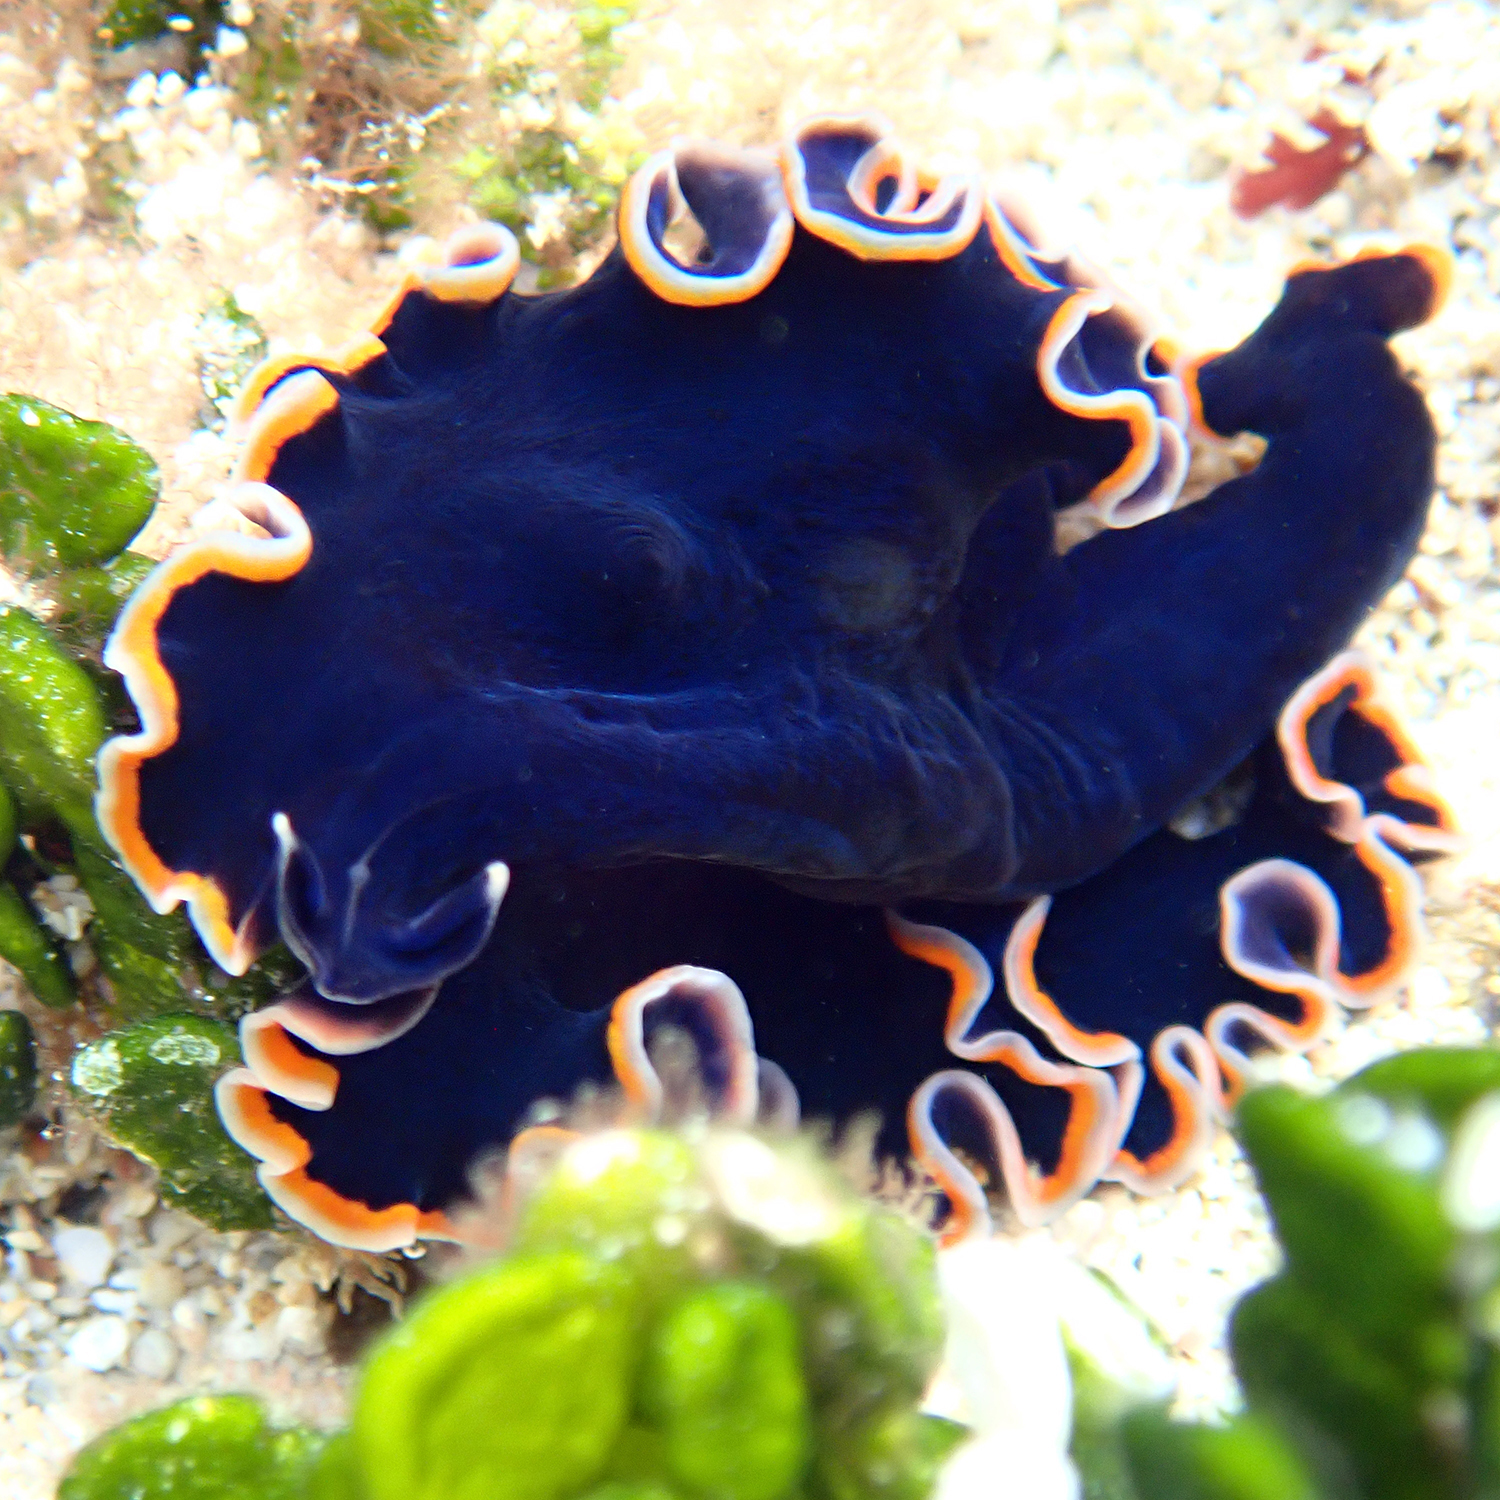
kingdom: Animalia
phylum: Platyhelminthes
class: Turbellaria
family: Pseudocerotidae
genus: Pseudobiceros
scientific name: Pseudobiceros hancockanus
